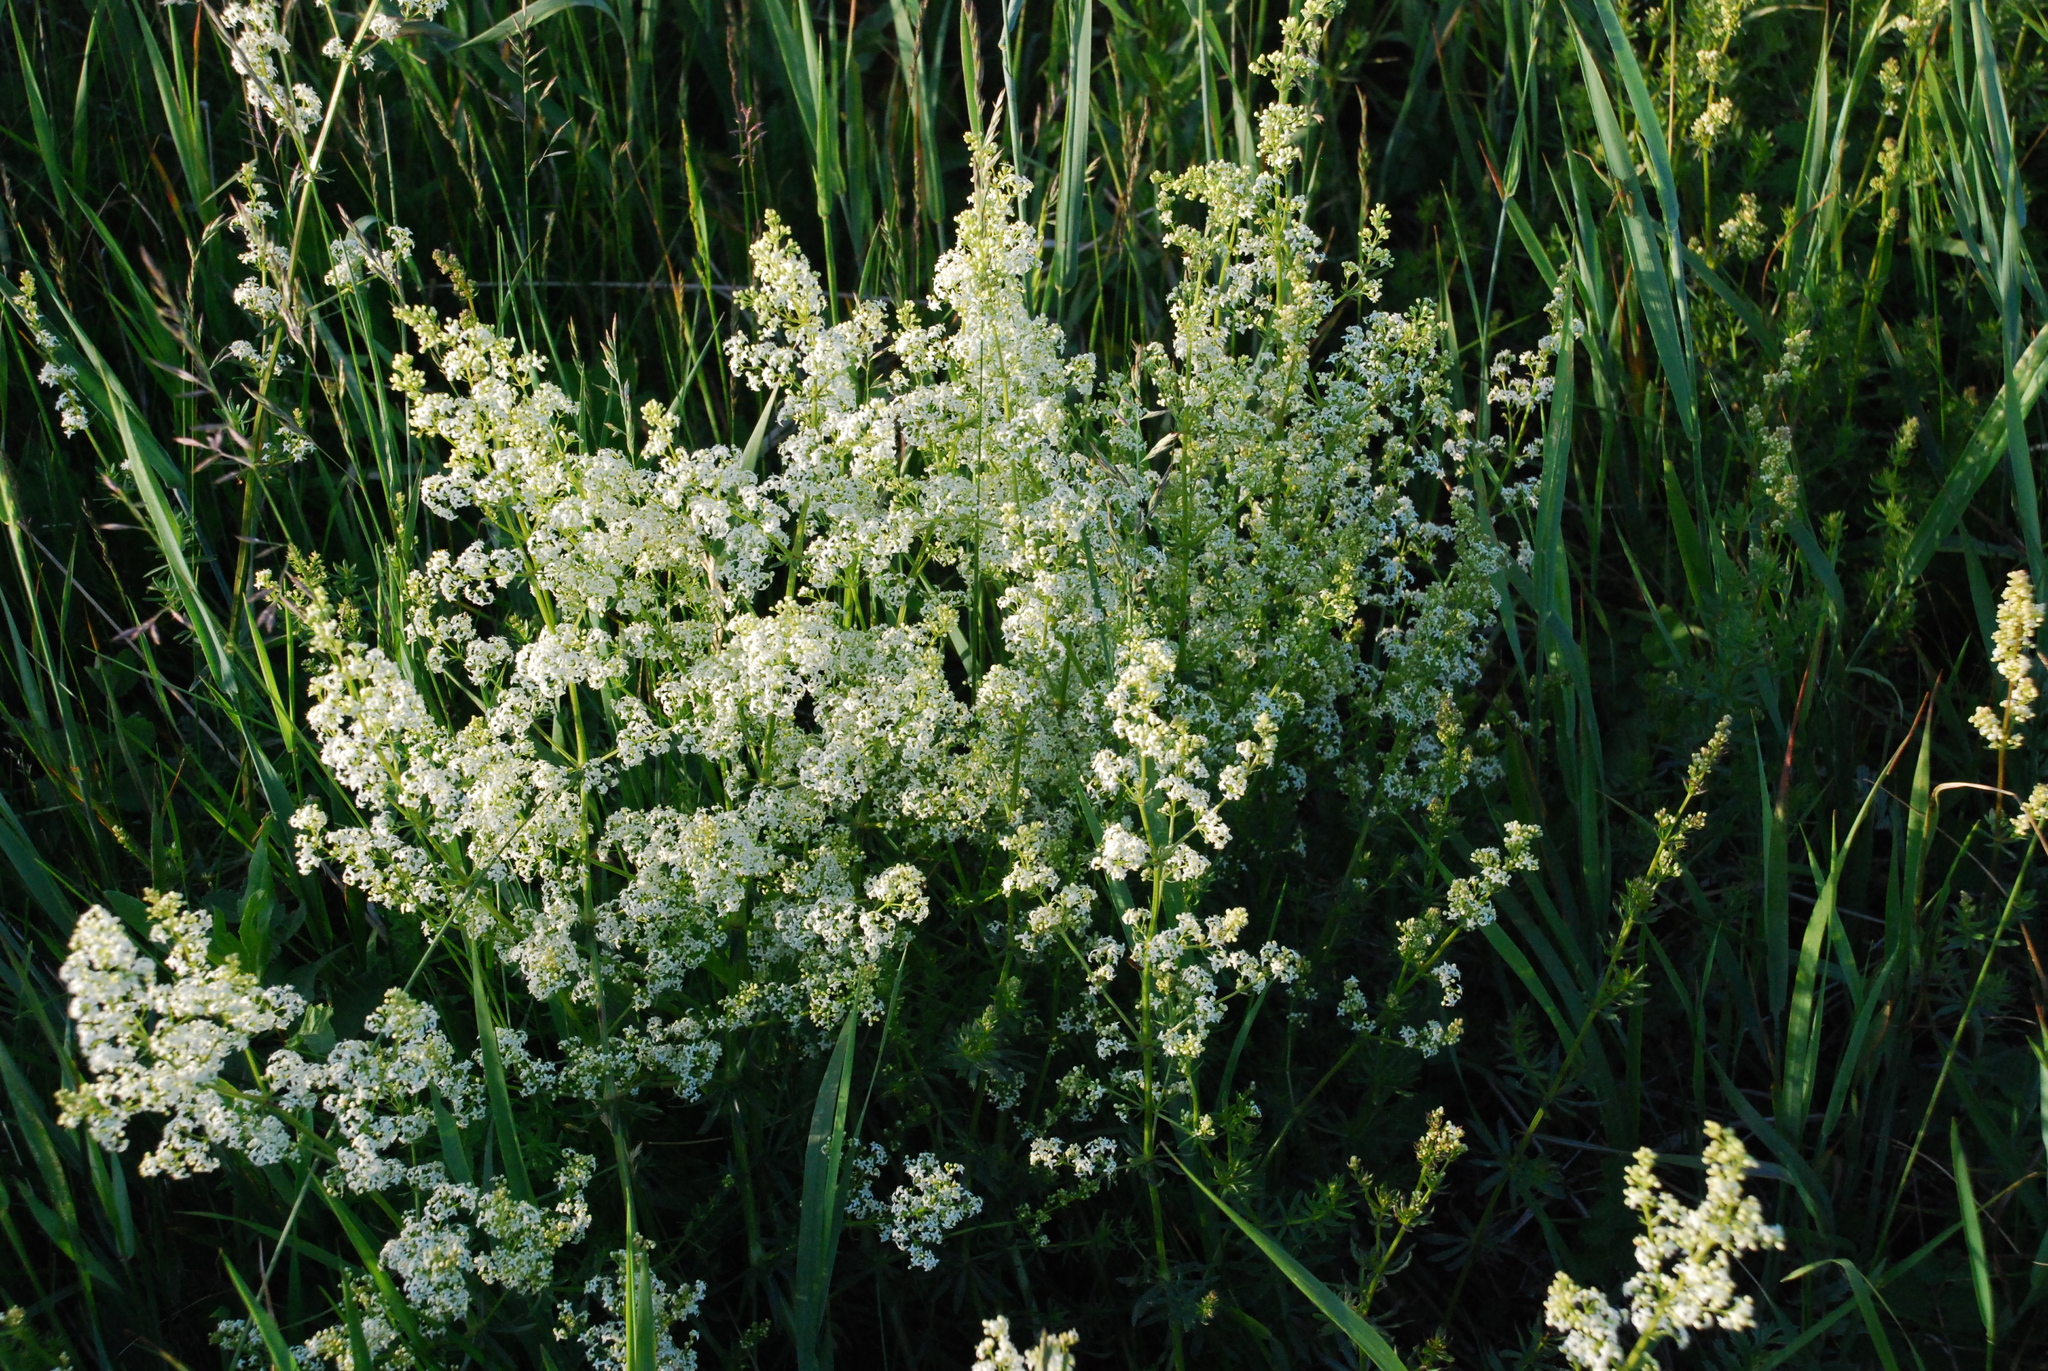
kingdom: Plantae
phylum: Tracheophyta
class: Magnoliopsida
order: Gentianales
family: Rubiaceae
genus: Galium
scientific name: Galium mollugo
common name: Hedge bedstraw
